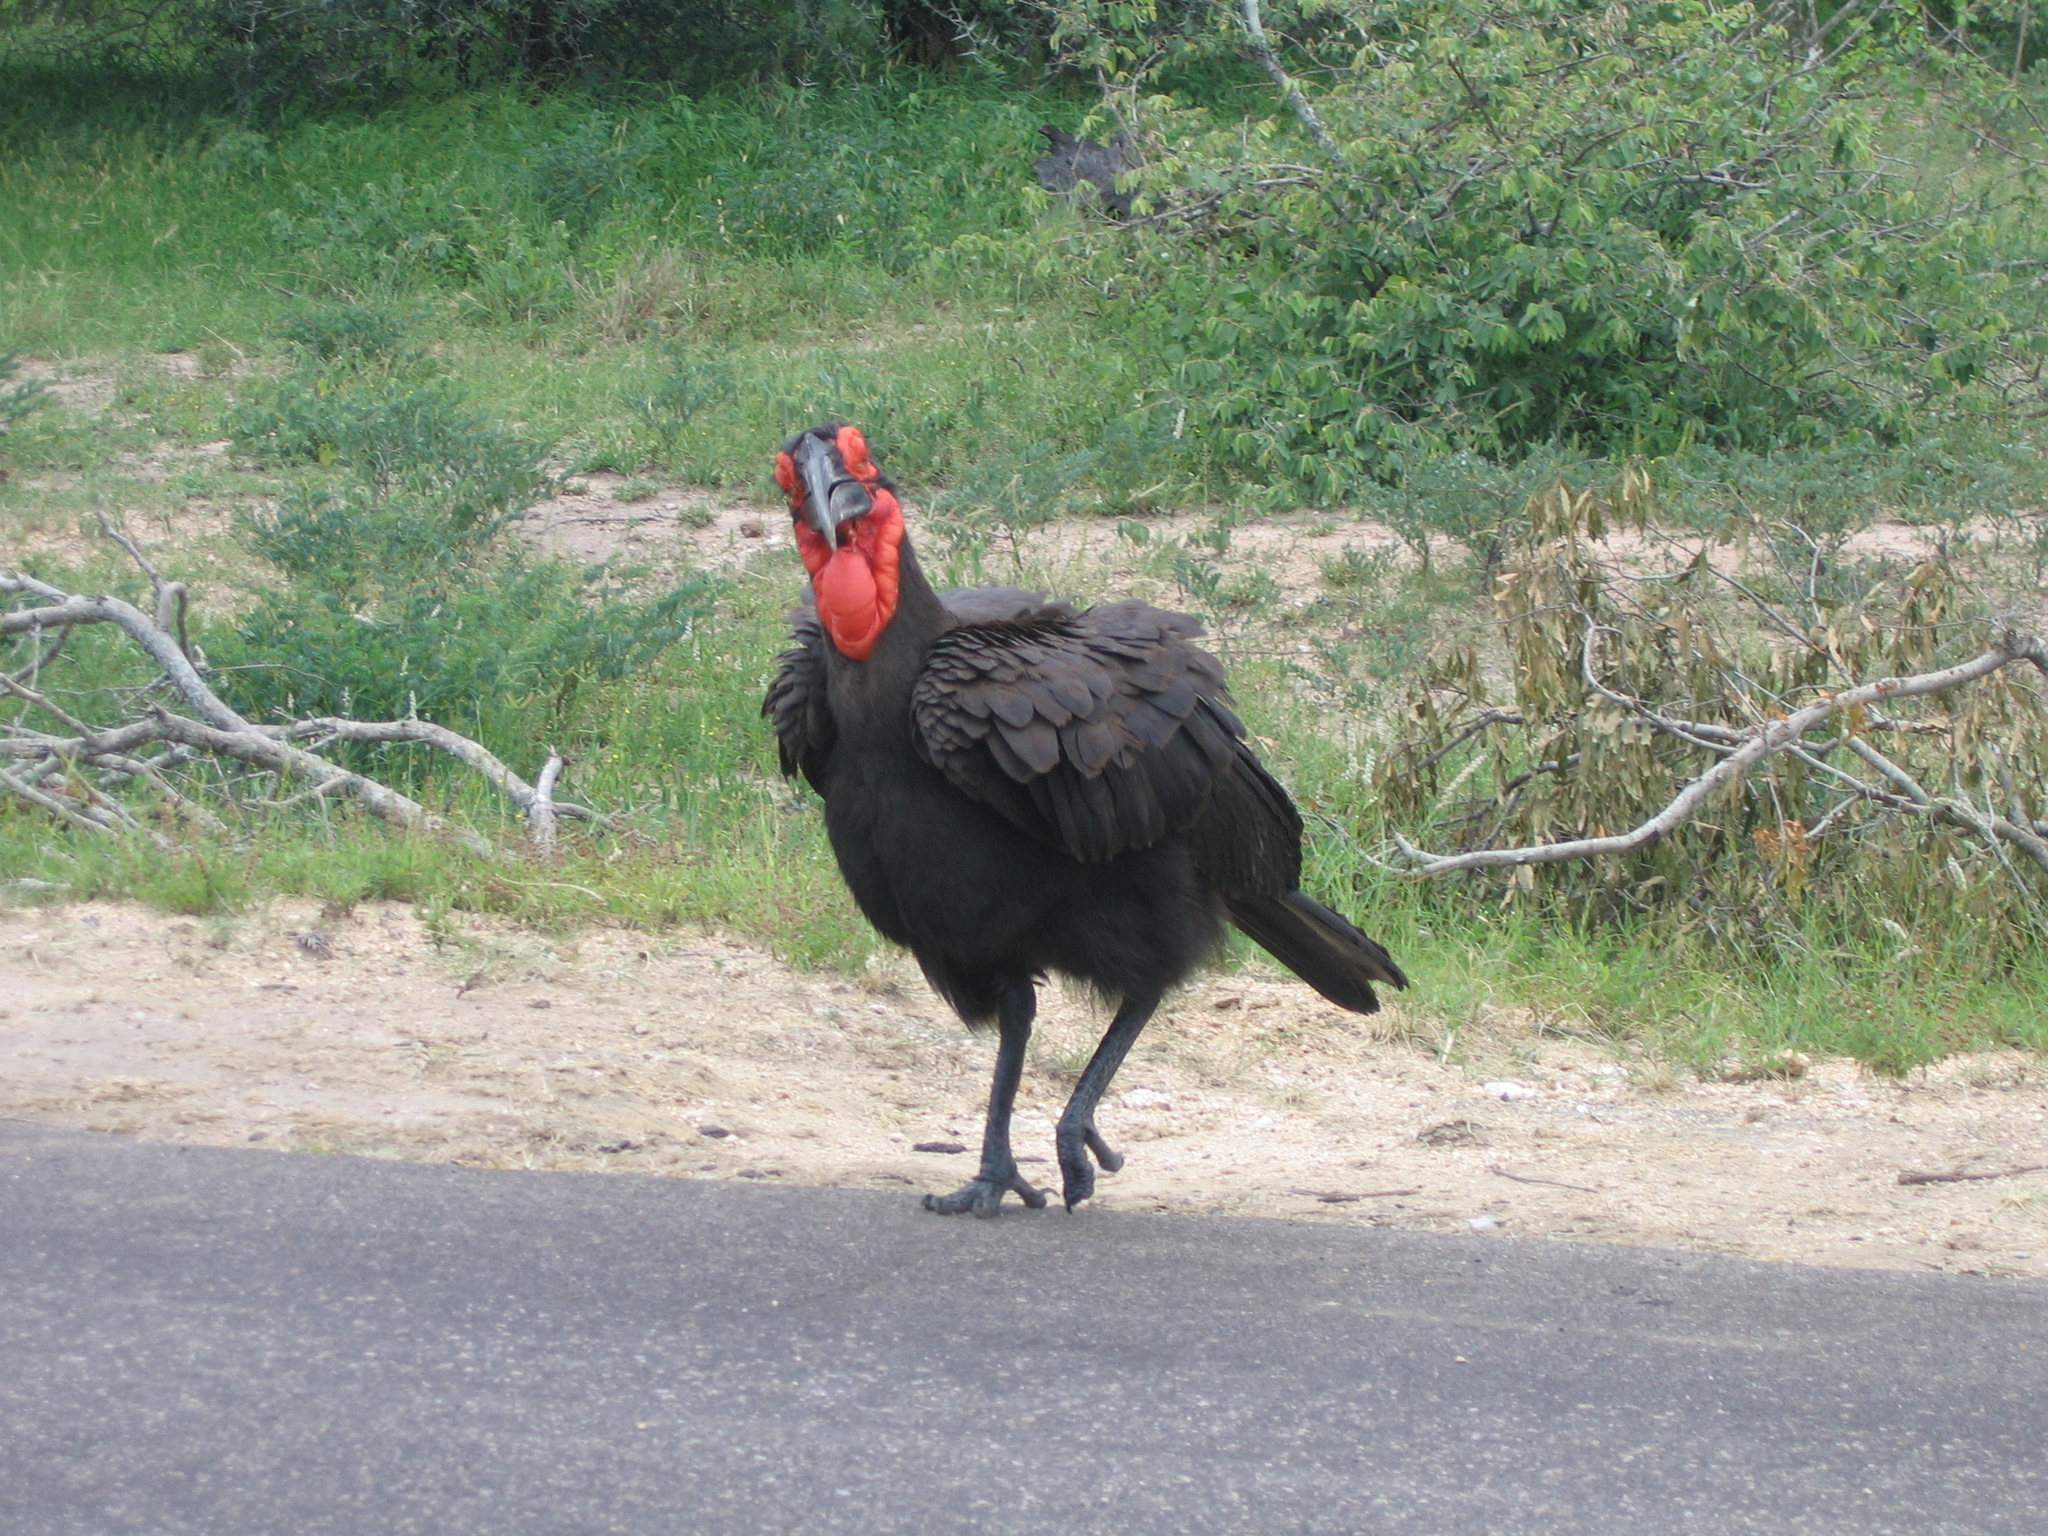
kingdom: Animalia
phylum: Chordata
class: Aves
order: Bucerotiformes
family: Bucorvidae
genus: Bucorvus
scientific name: Bucorvus leadbeateri
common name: Southern ground-hornbill
